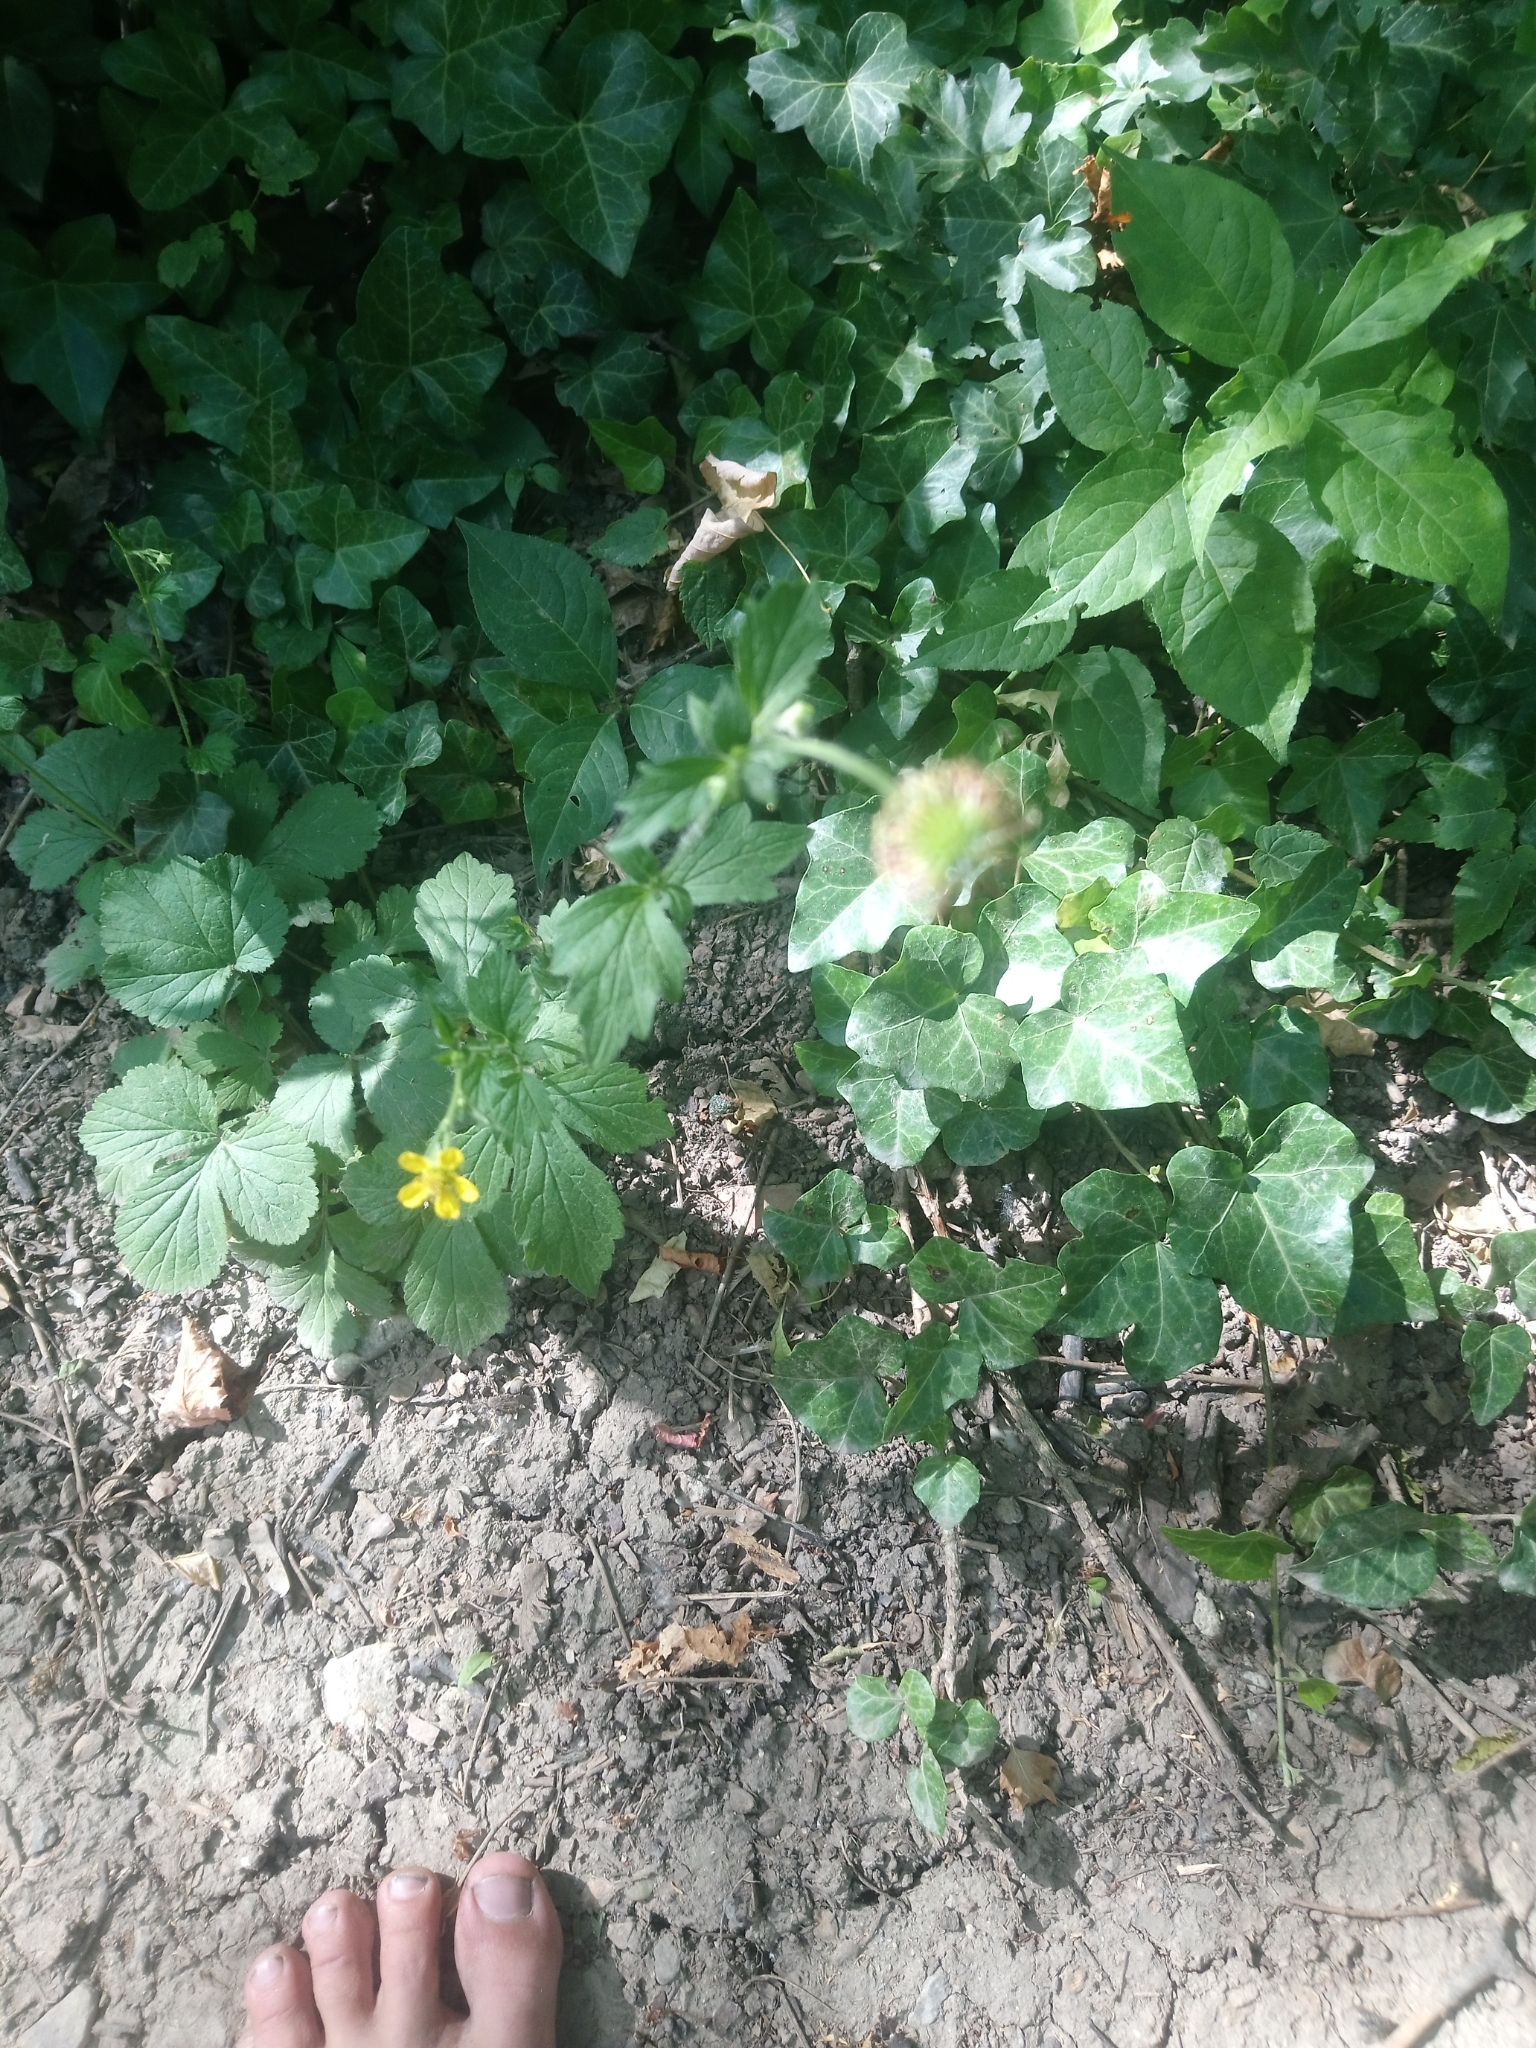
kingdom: Plantae
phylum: Tracheophyta
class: Magnoliopsida
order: Rosales
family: Rosaceae
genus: Geum
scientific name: Geum urbanum
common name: Wood avens
